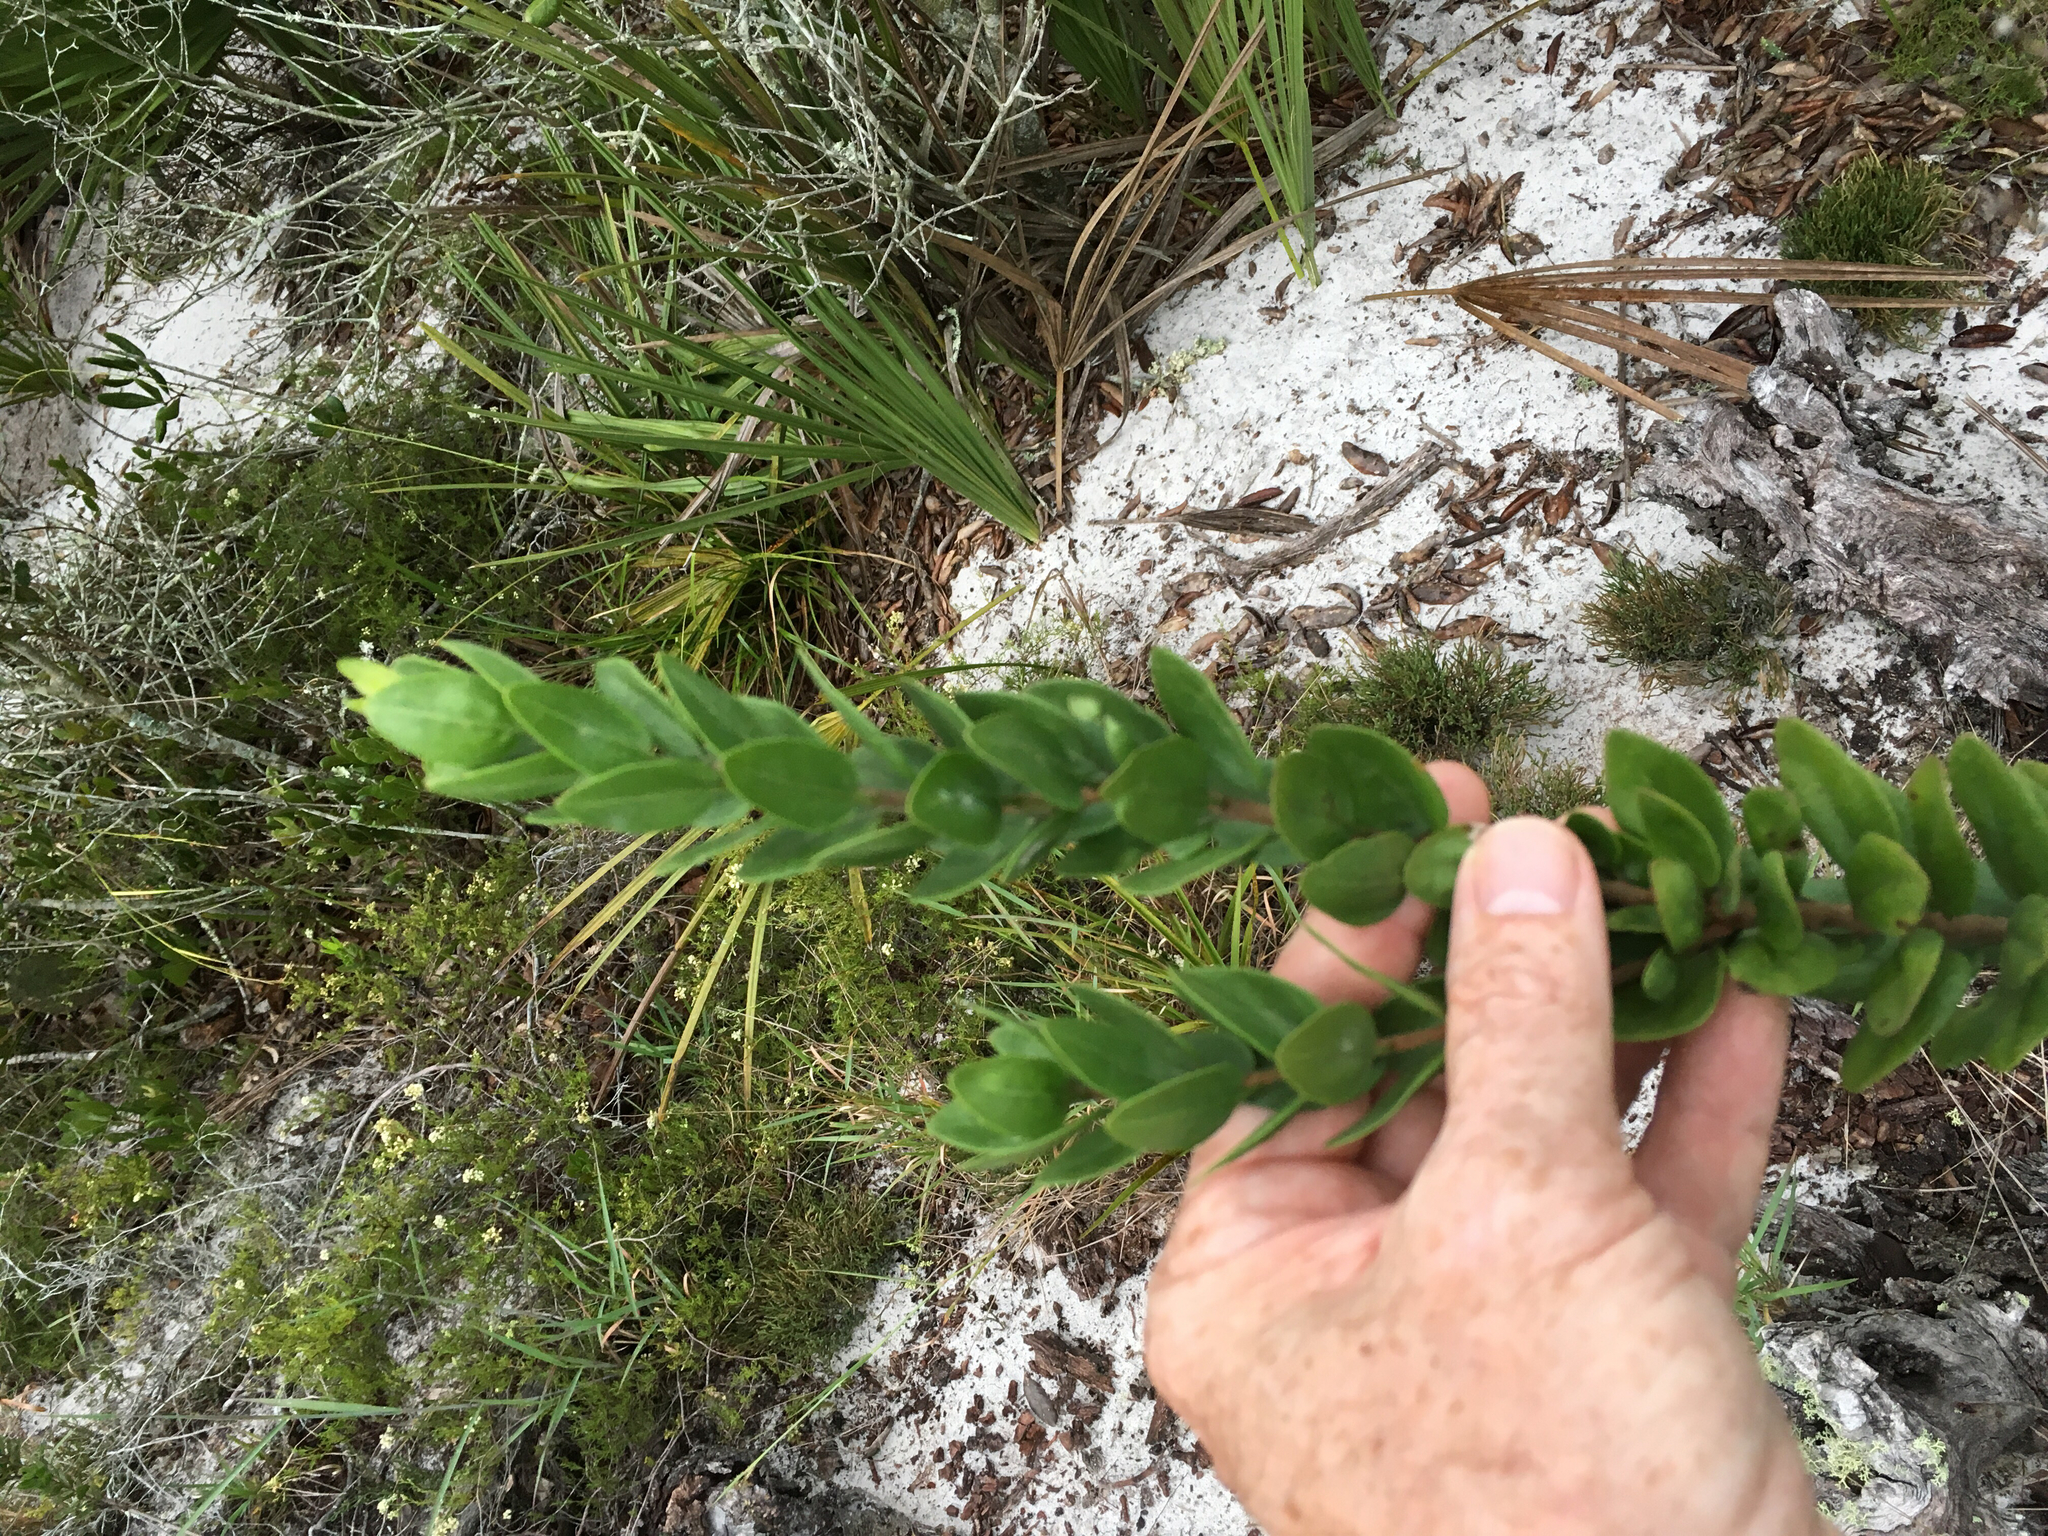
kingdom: Plantae
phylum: Tracheophyta
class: Magnoliopsida
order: Asterales
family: Asteraceae
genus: Palafoxia
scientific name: Palafoxia feayi
